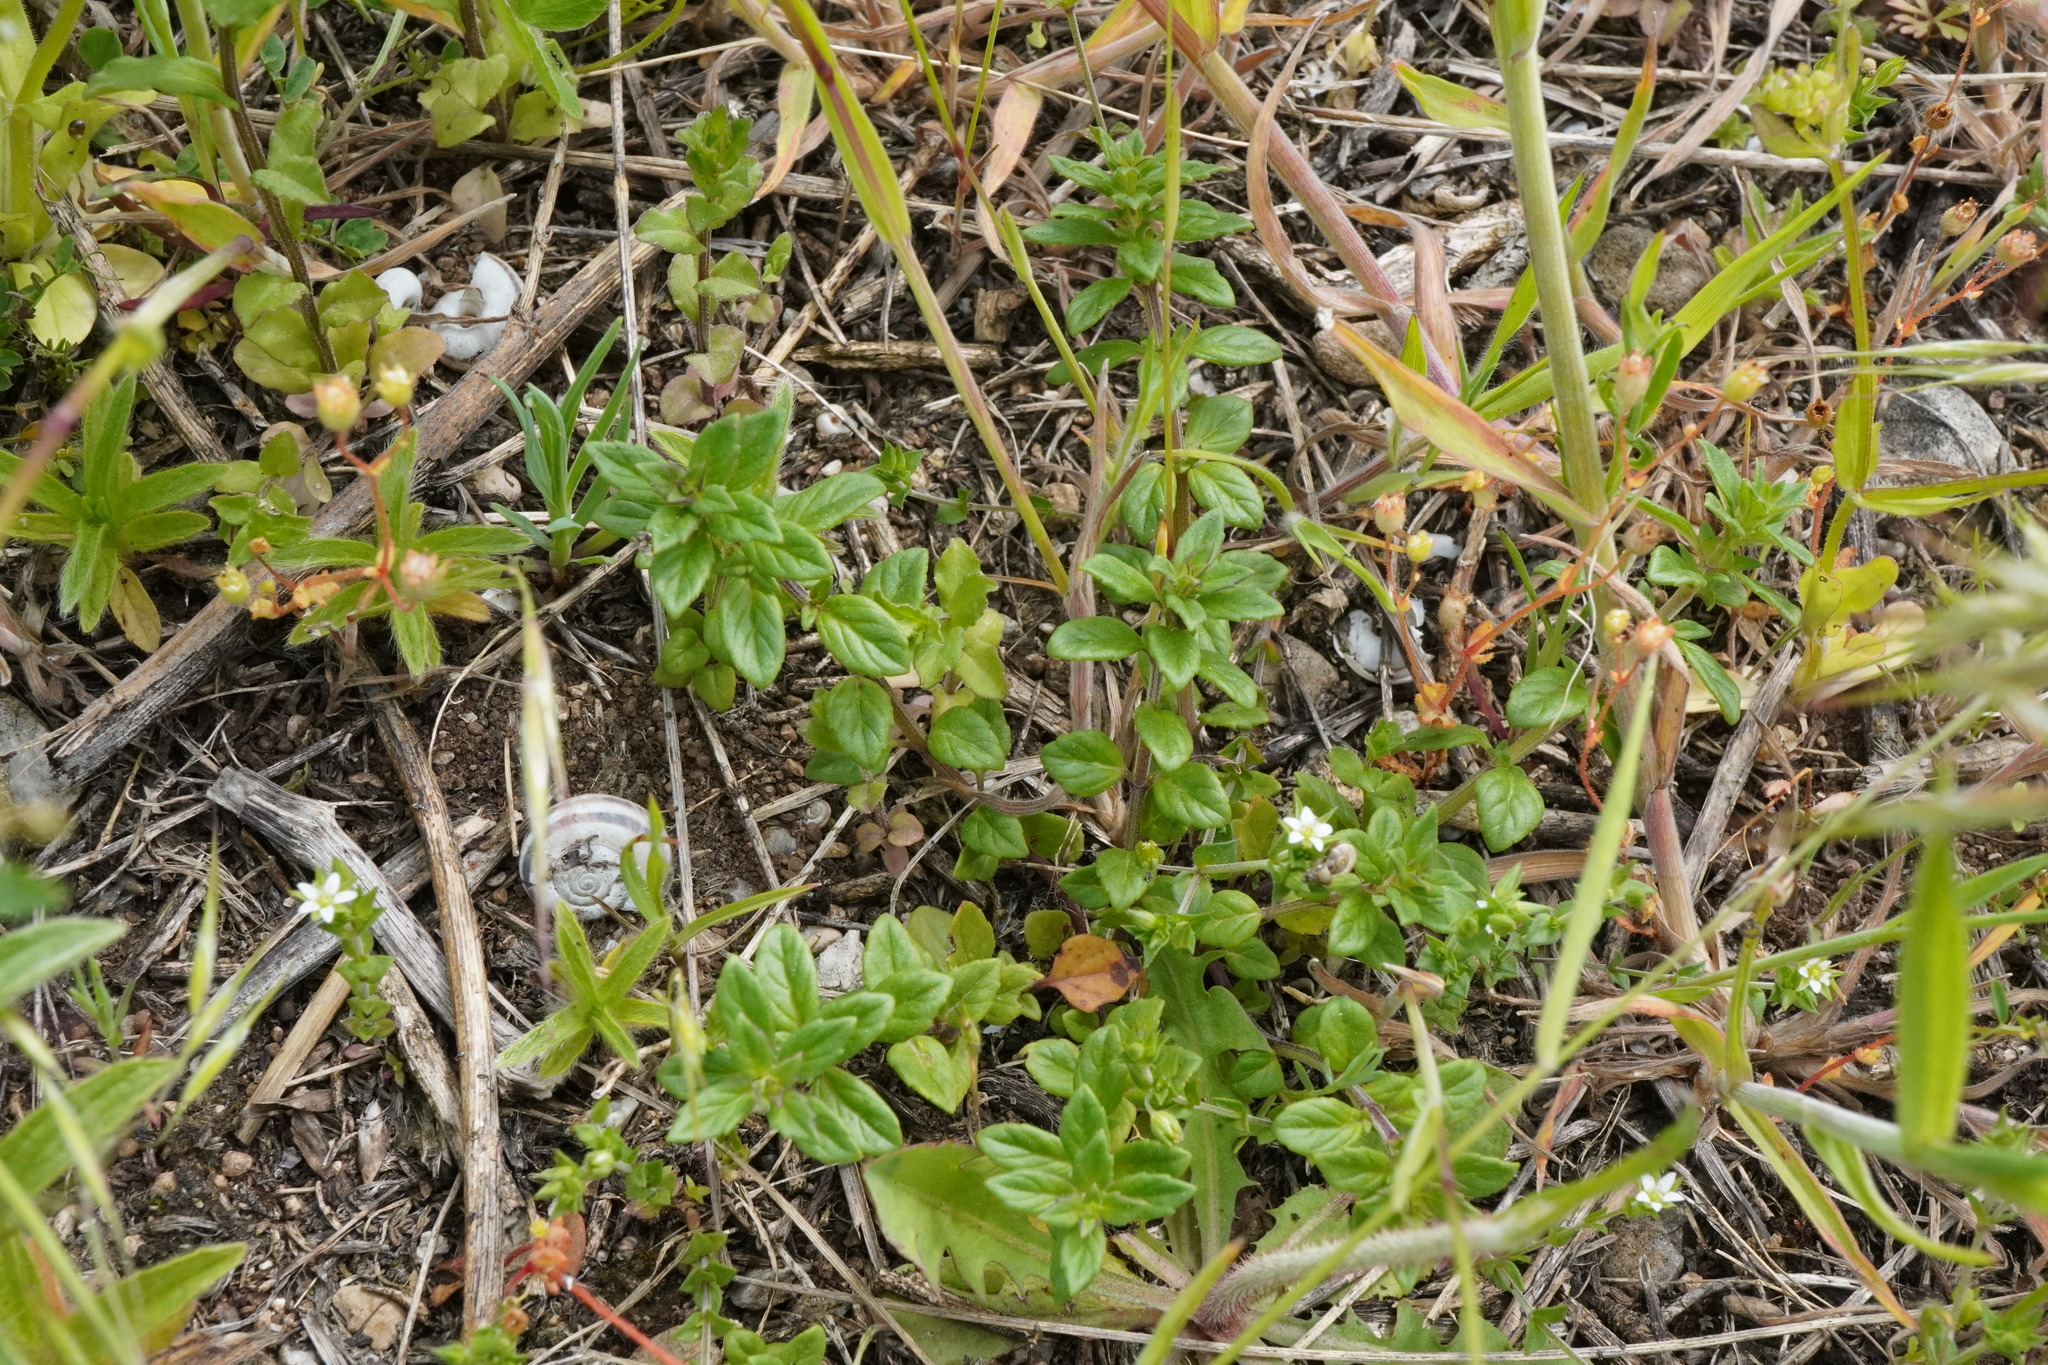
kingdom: Plantae
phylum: Tracheophyta
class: Magnoliopsida
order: Lamiales
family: Lamiaceae
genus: Clinopodium
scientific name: Clinopodium acinos
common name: Basil thyme
